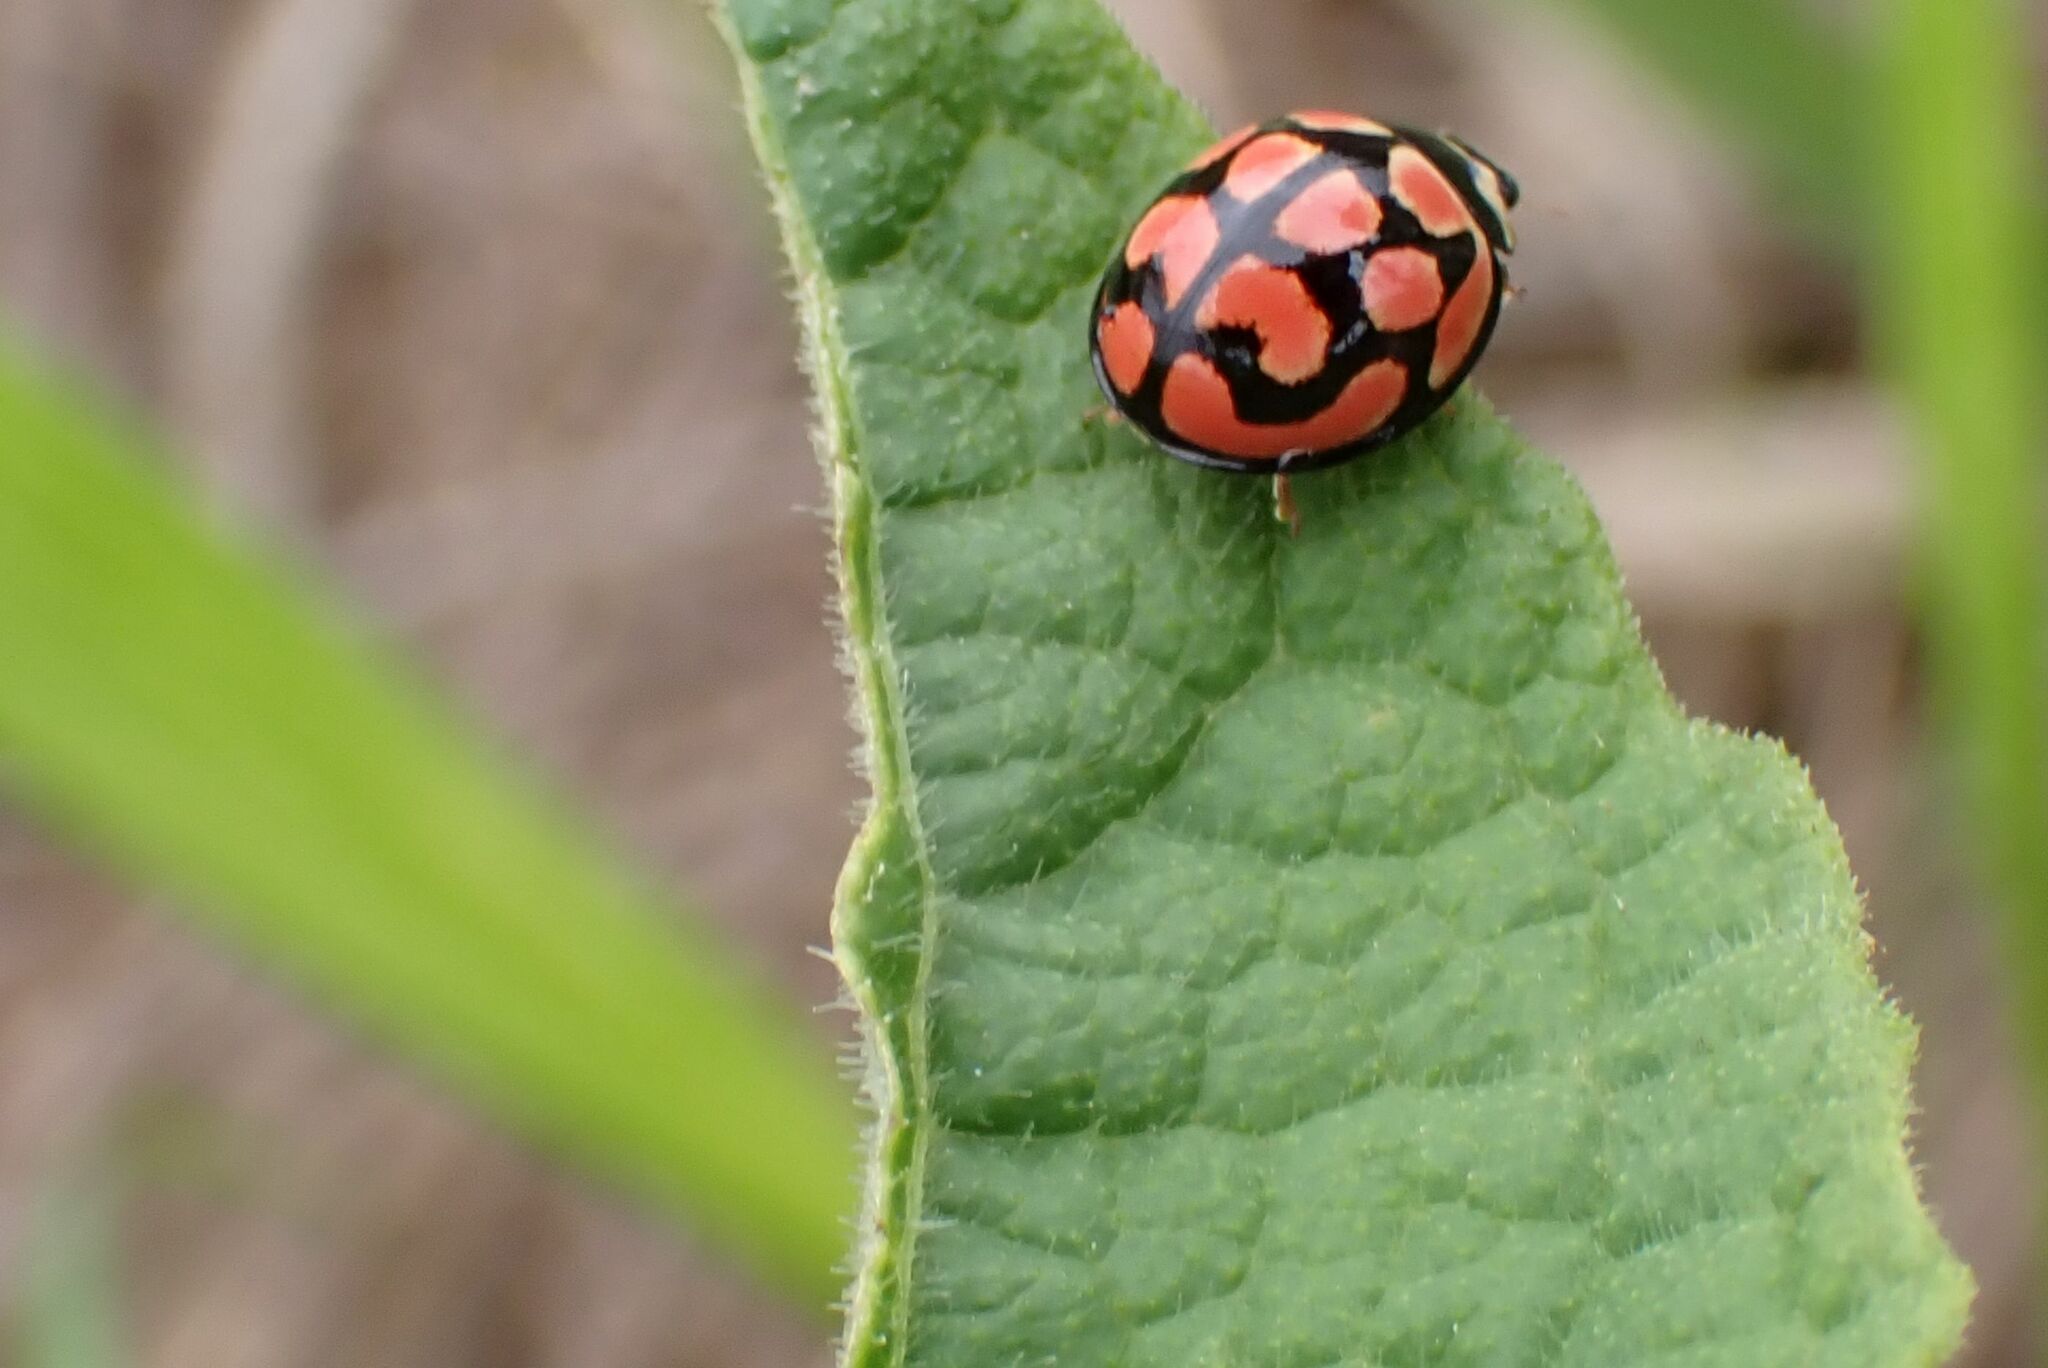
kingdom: Animalia
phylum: Arthropoda
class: Insecta
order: Coleoptera
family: Coccinellidae
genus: Cheilomenes
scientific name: Cheilomenes lunata
